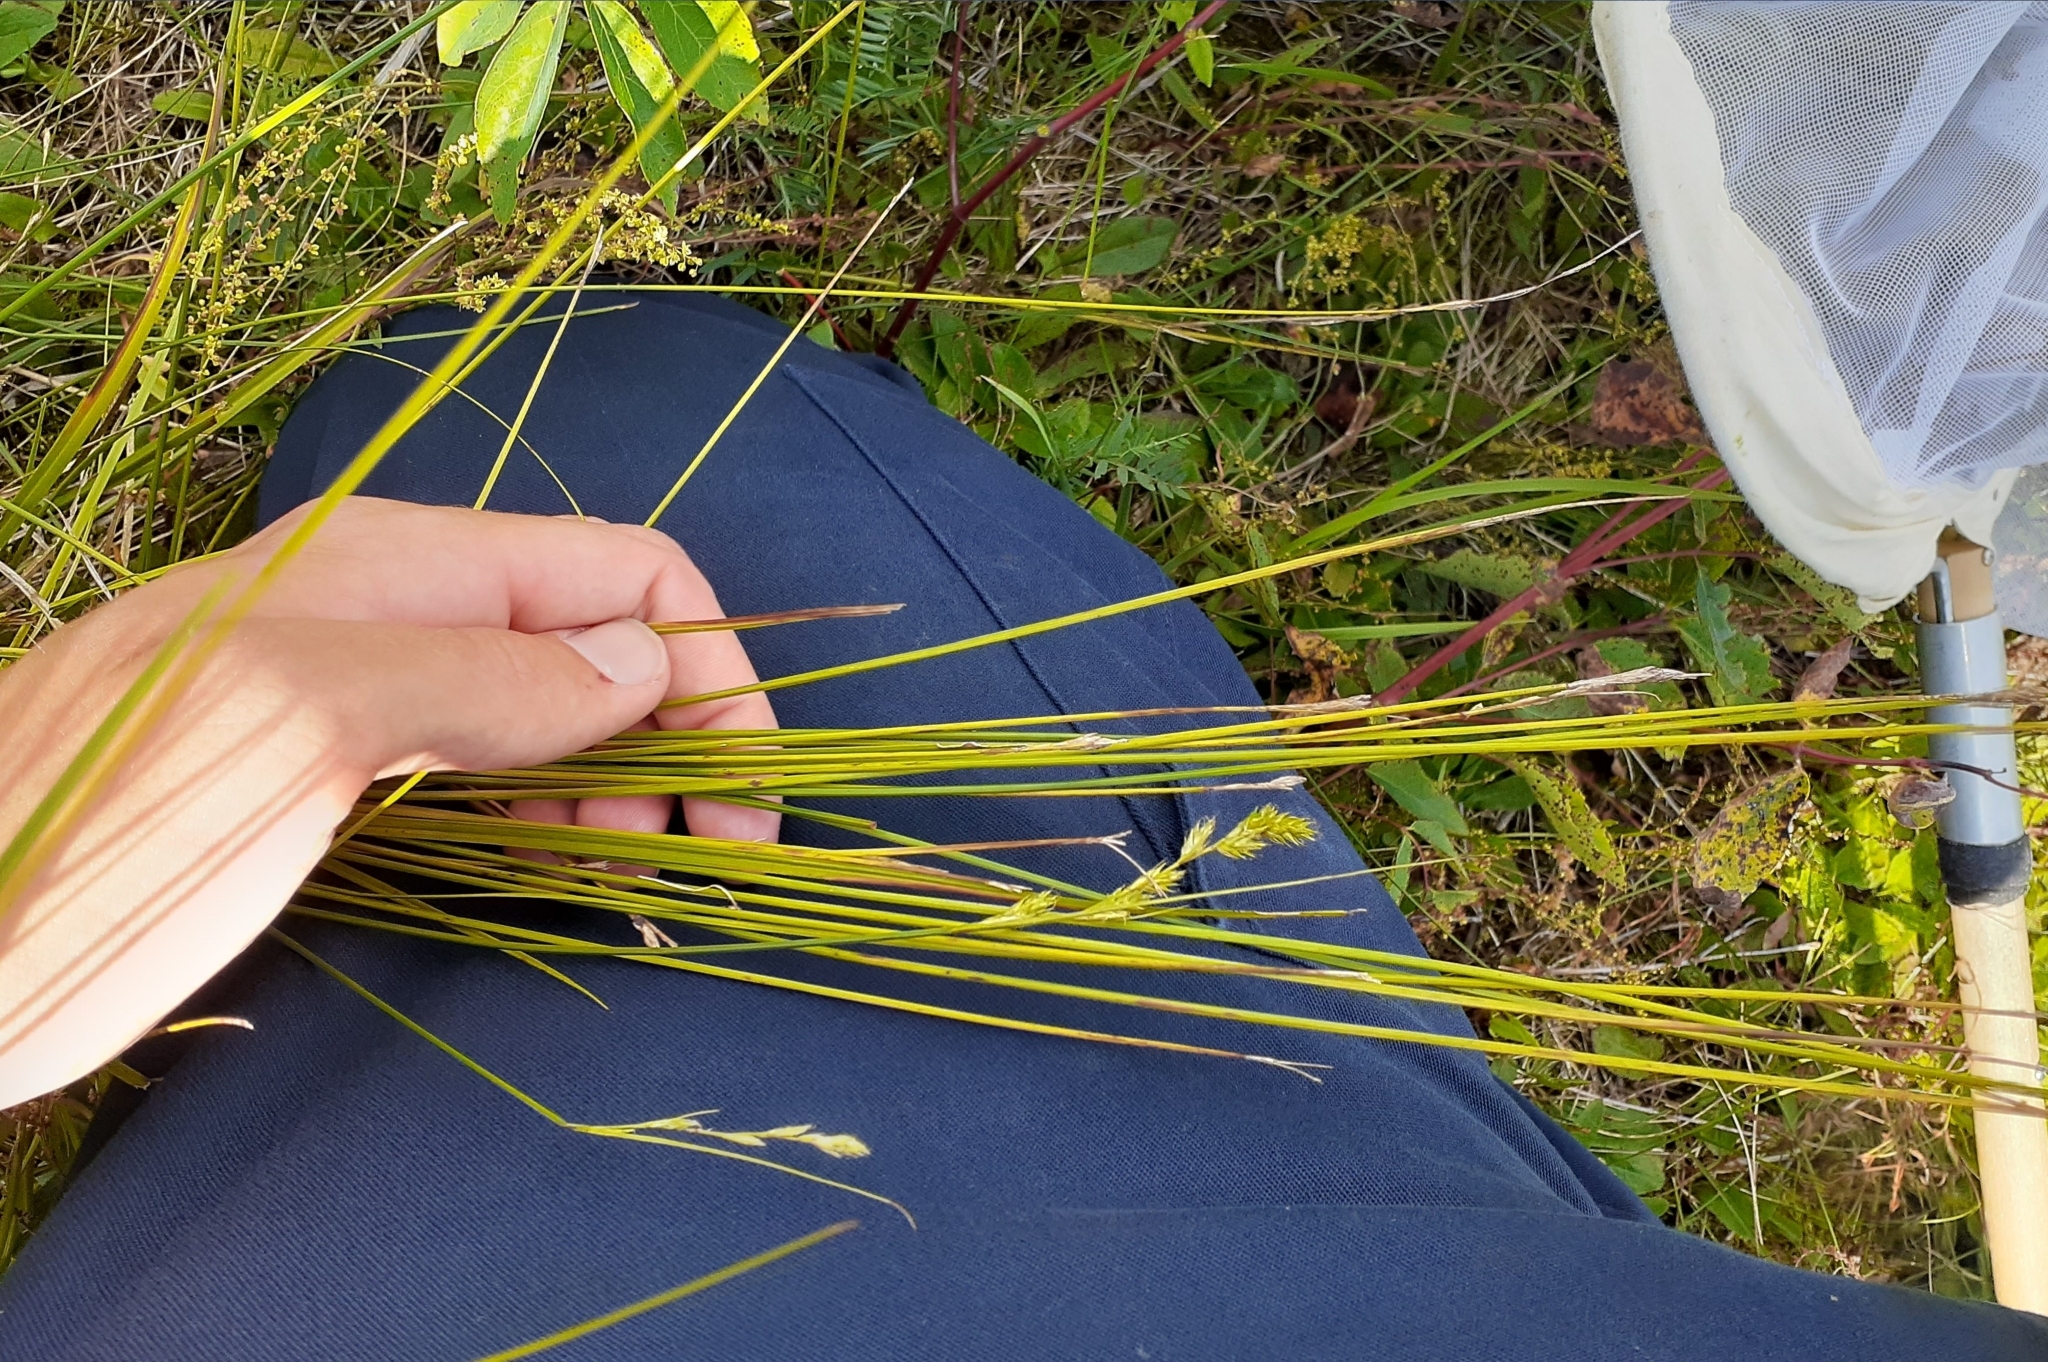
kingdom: Plantae
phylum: Tracheophyta
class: Liliopsida
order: Poales
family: Cyperaceae
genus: Carex
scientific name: Carex adusta
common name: Browned sedge
